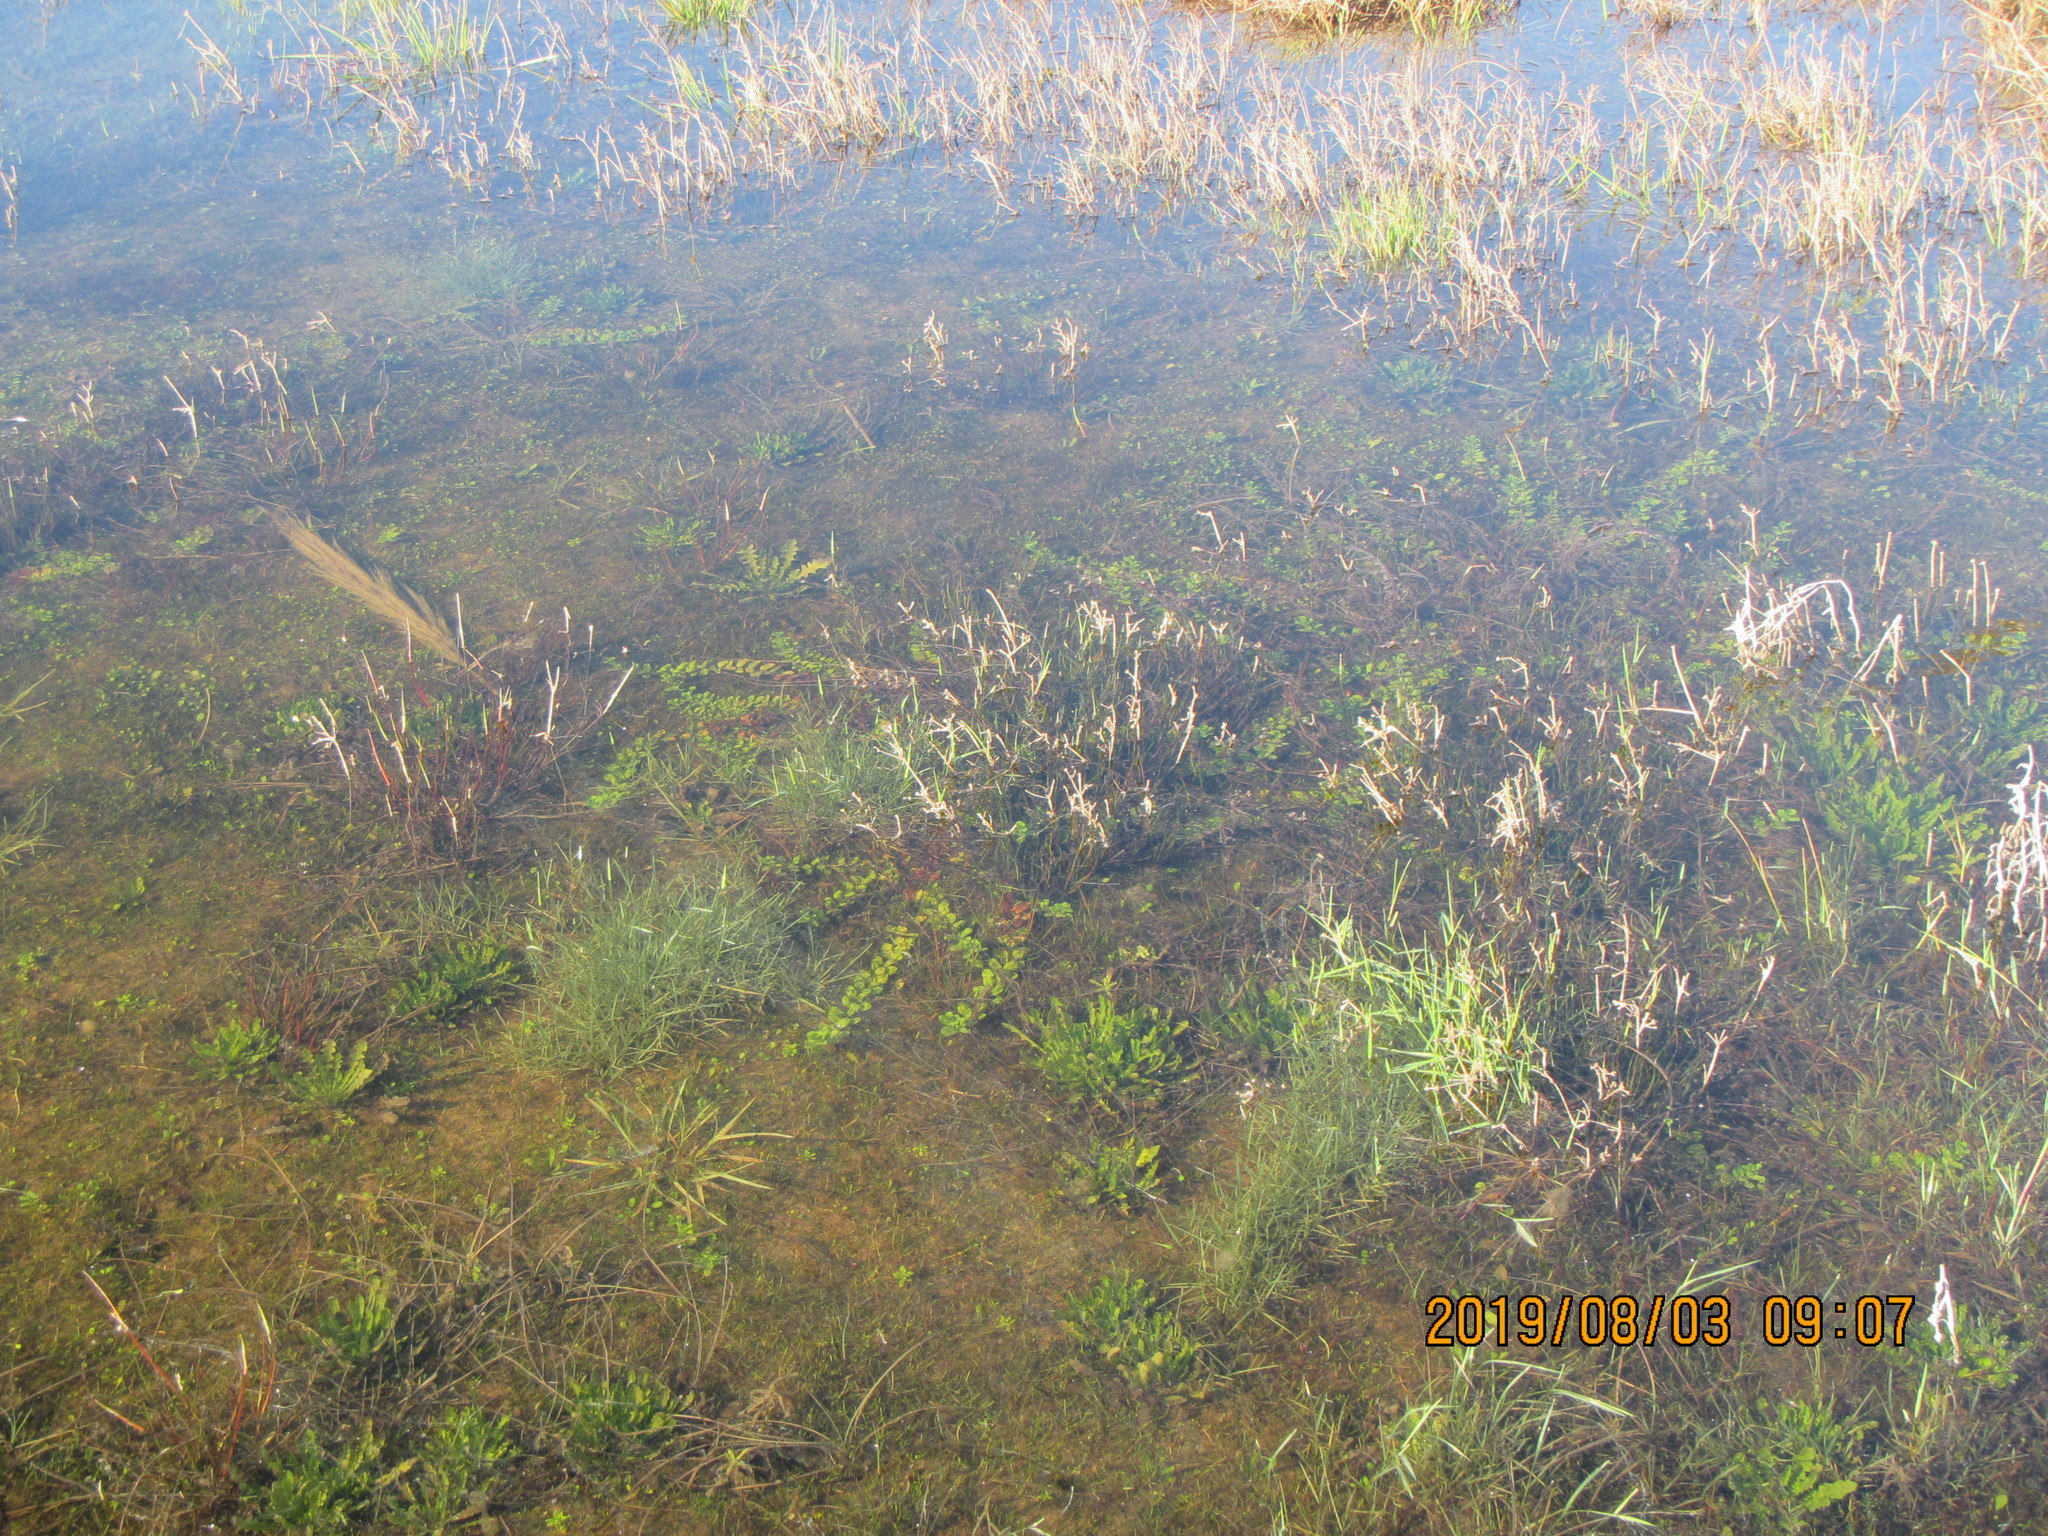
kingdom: Plantae
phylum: Tracheophyta
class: Magnoliopsida
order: Myrtales
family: Onagraceae
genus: Epilobium
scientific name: Epilobium billardiereanum
